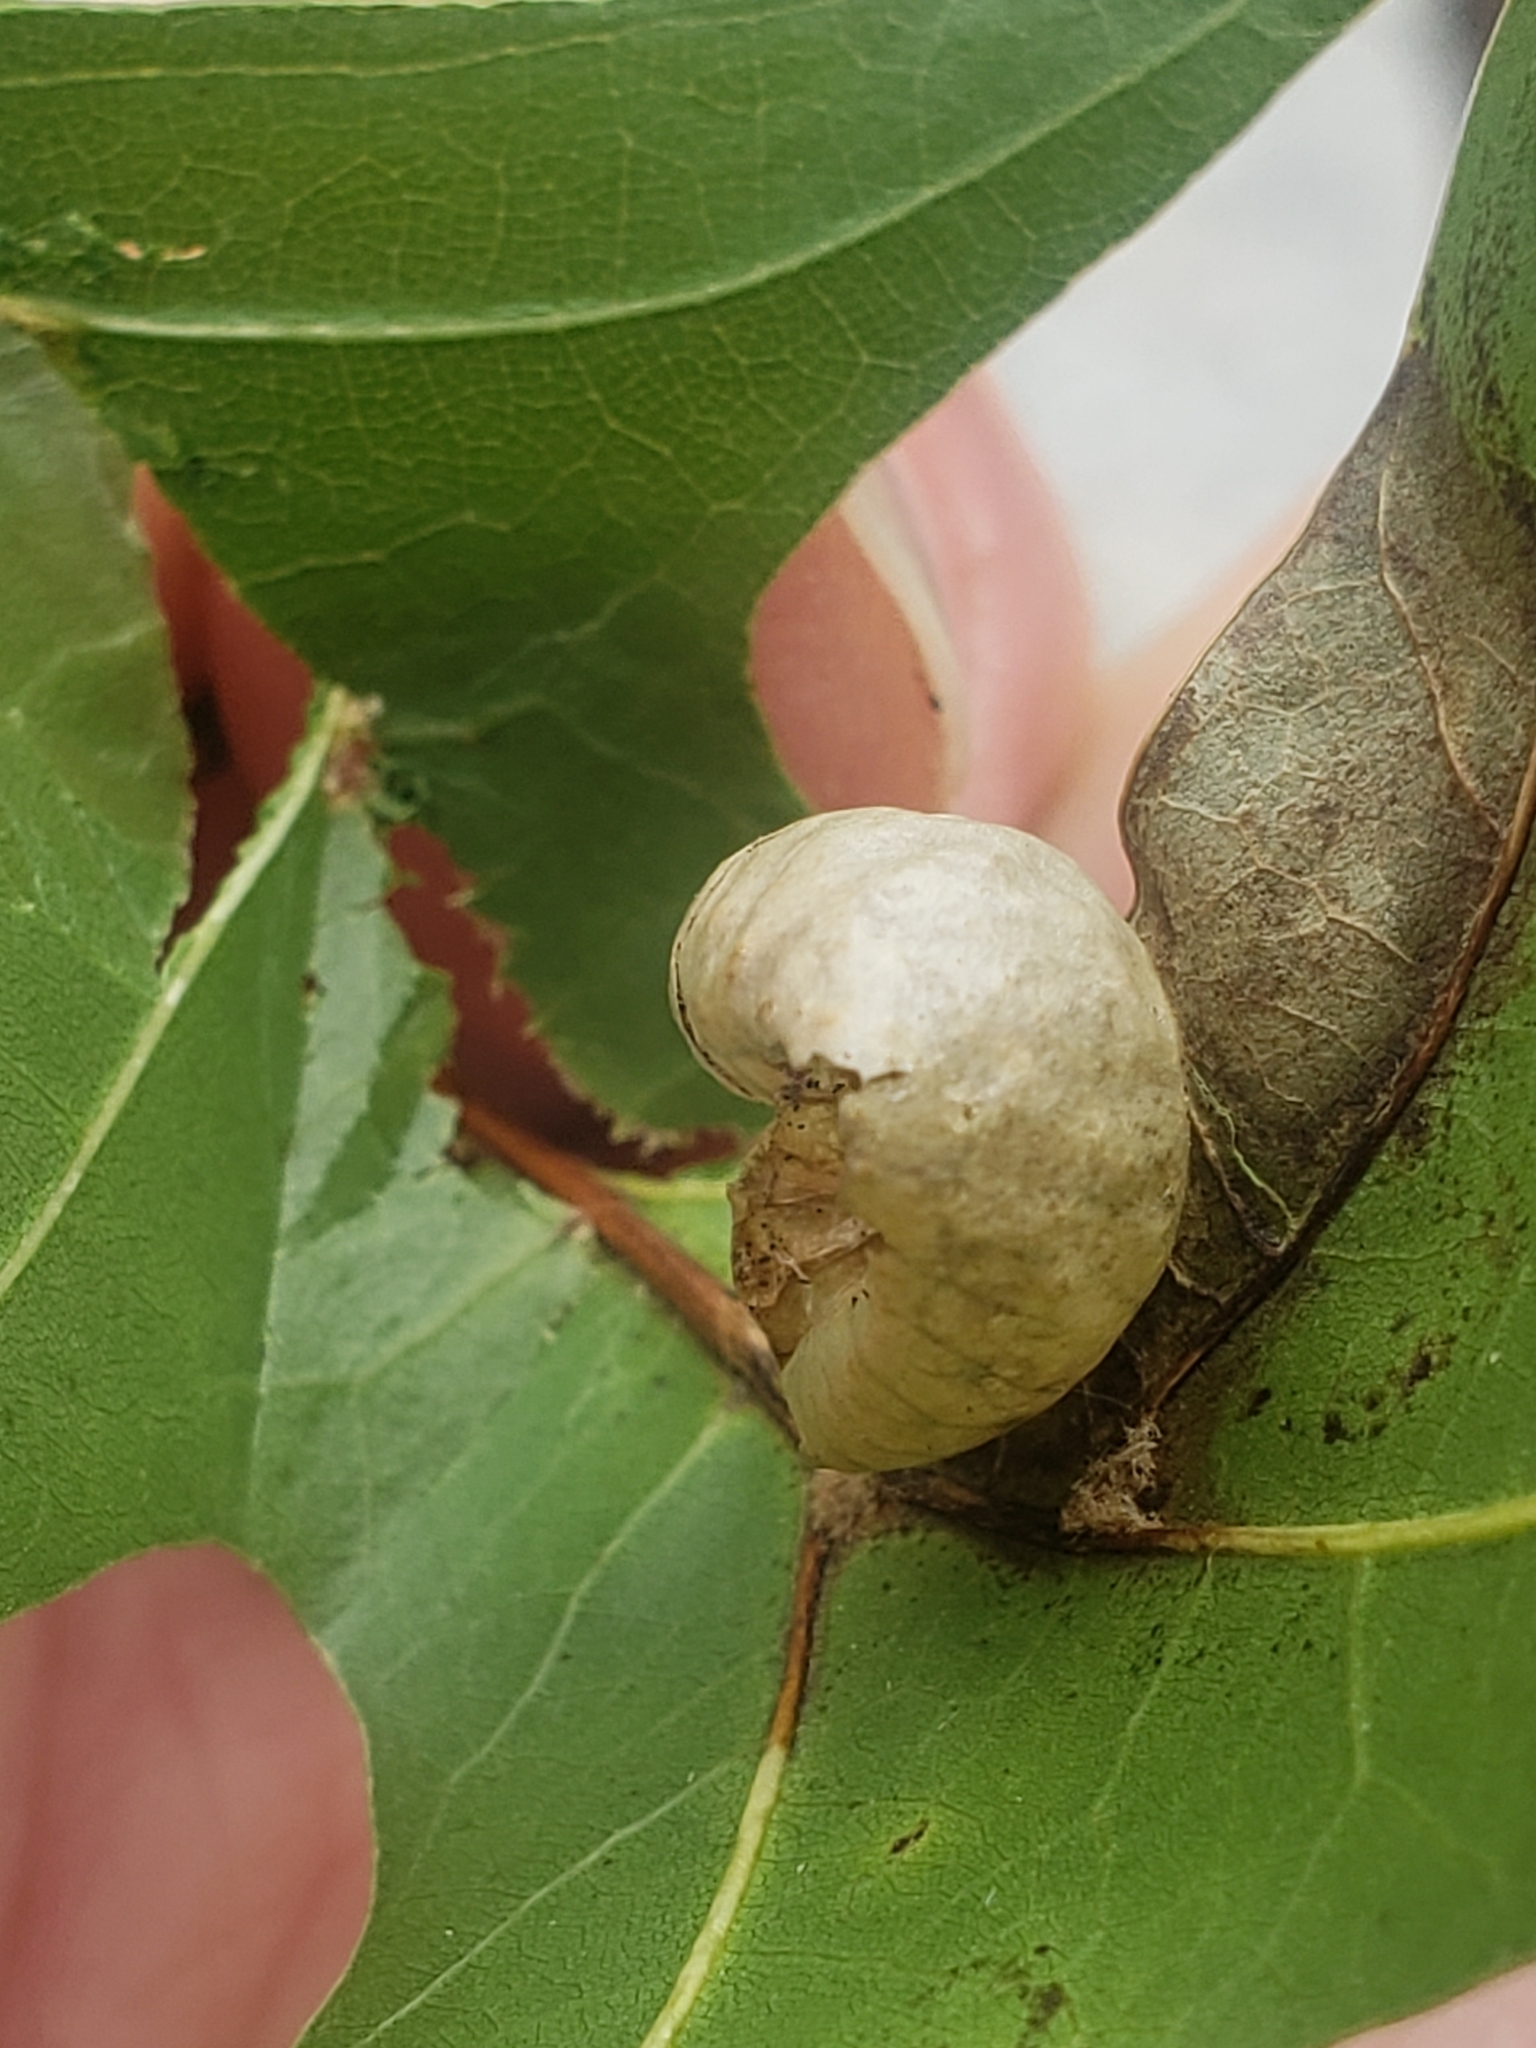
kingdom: Animalia
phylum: Arthropoda
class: Insecta
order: Hymenoptera
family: Cynipidae
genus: Amphibolips
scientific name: Amphibolips
